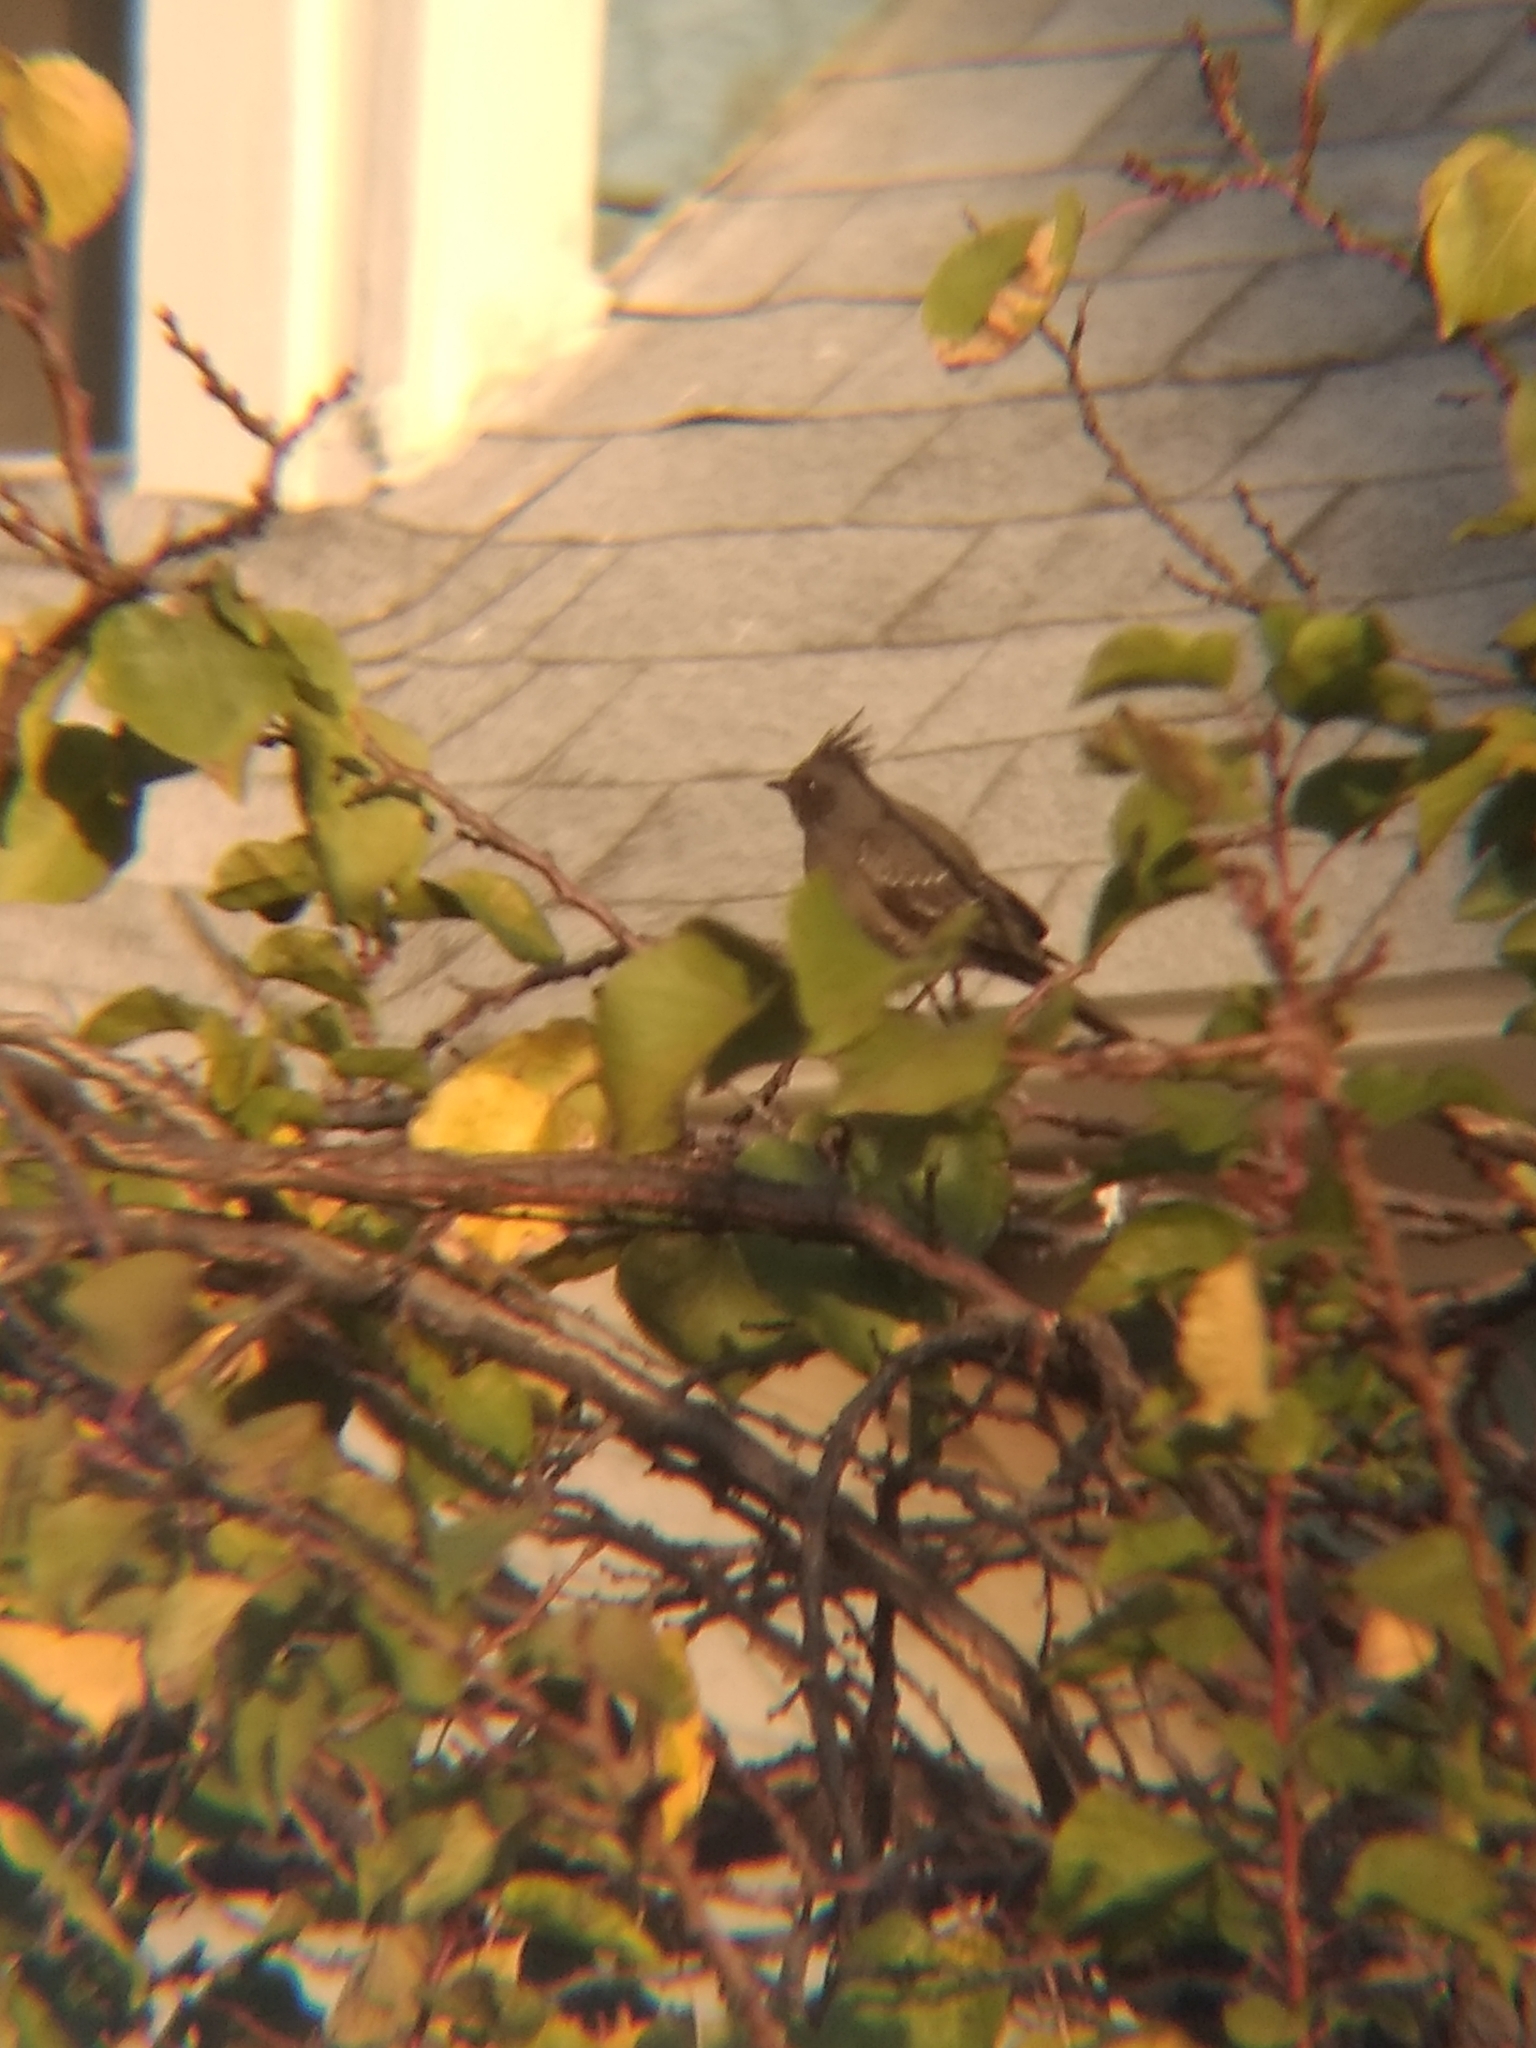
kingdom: Animalia
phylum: Chordata
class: Aves
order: Passeriformes
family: Ptilogonatidae
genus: Phainopepla
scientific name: Phainopepla nitens
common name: Phainopepla
